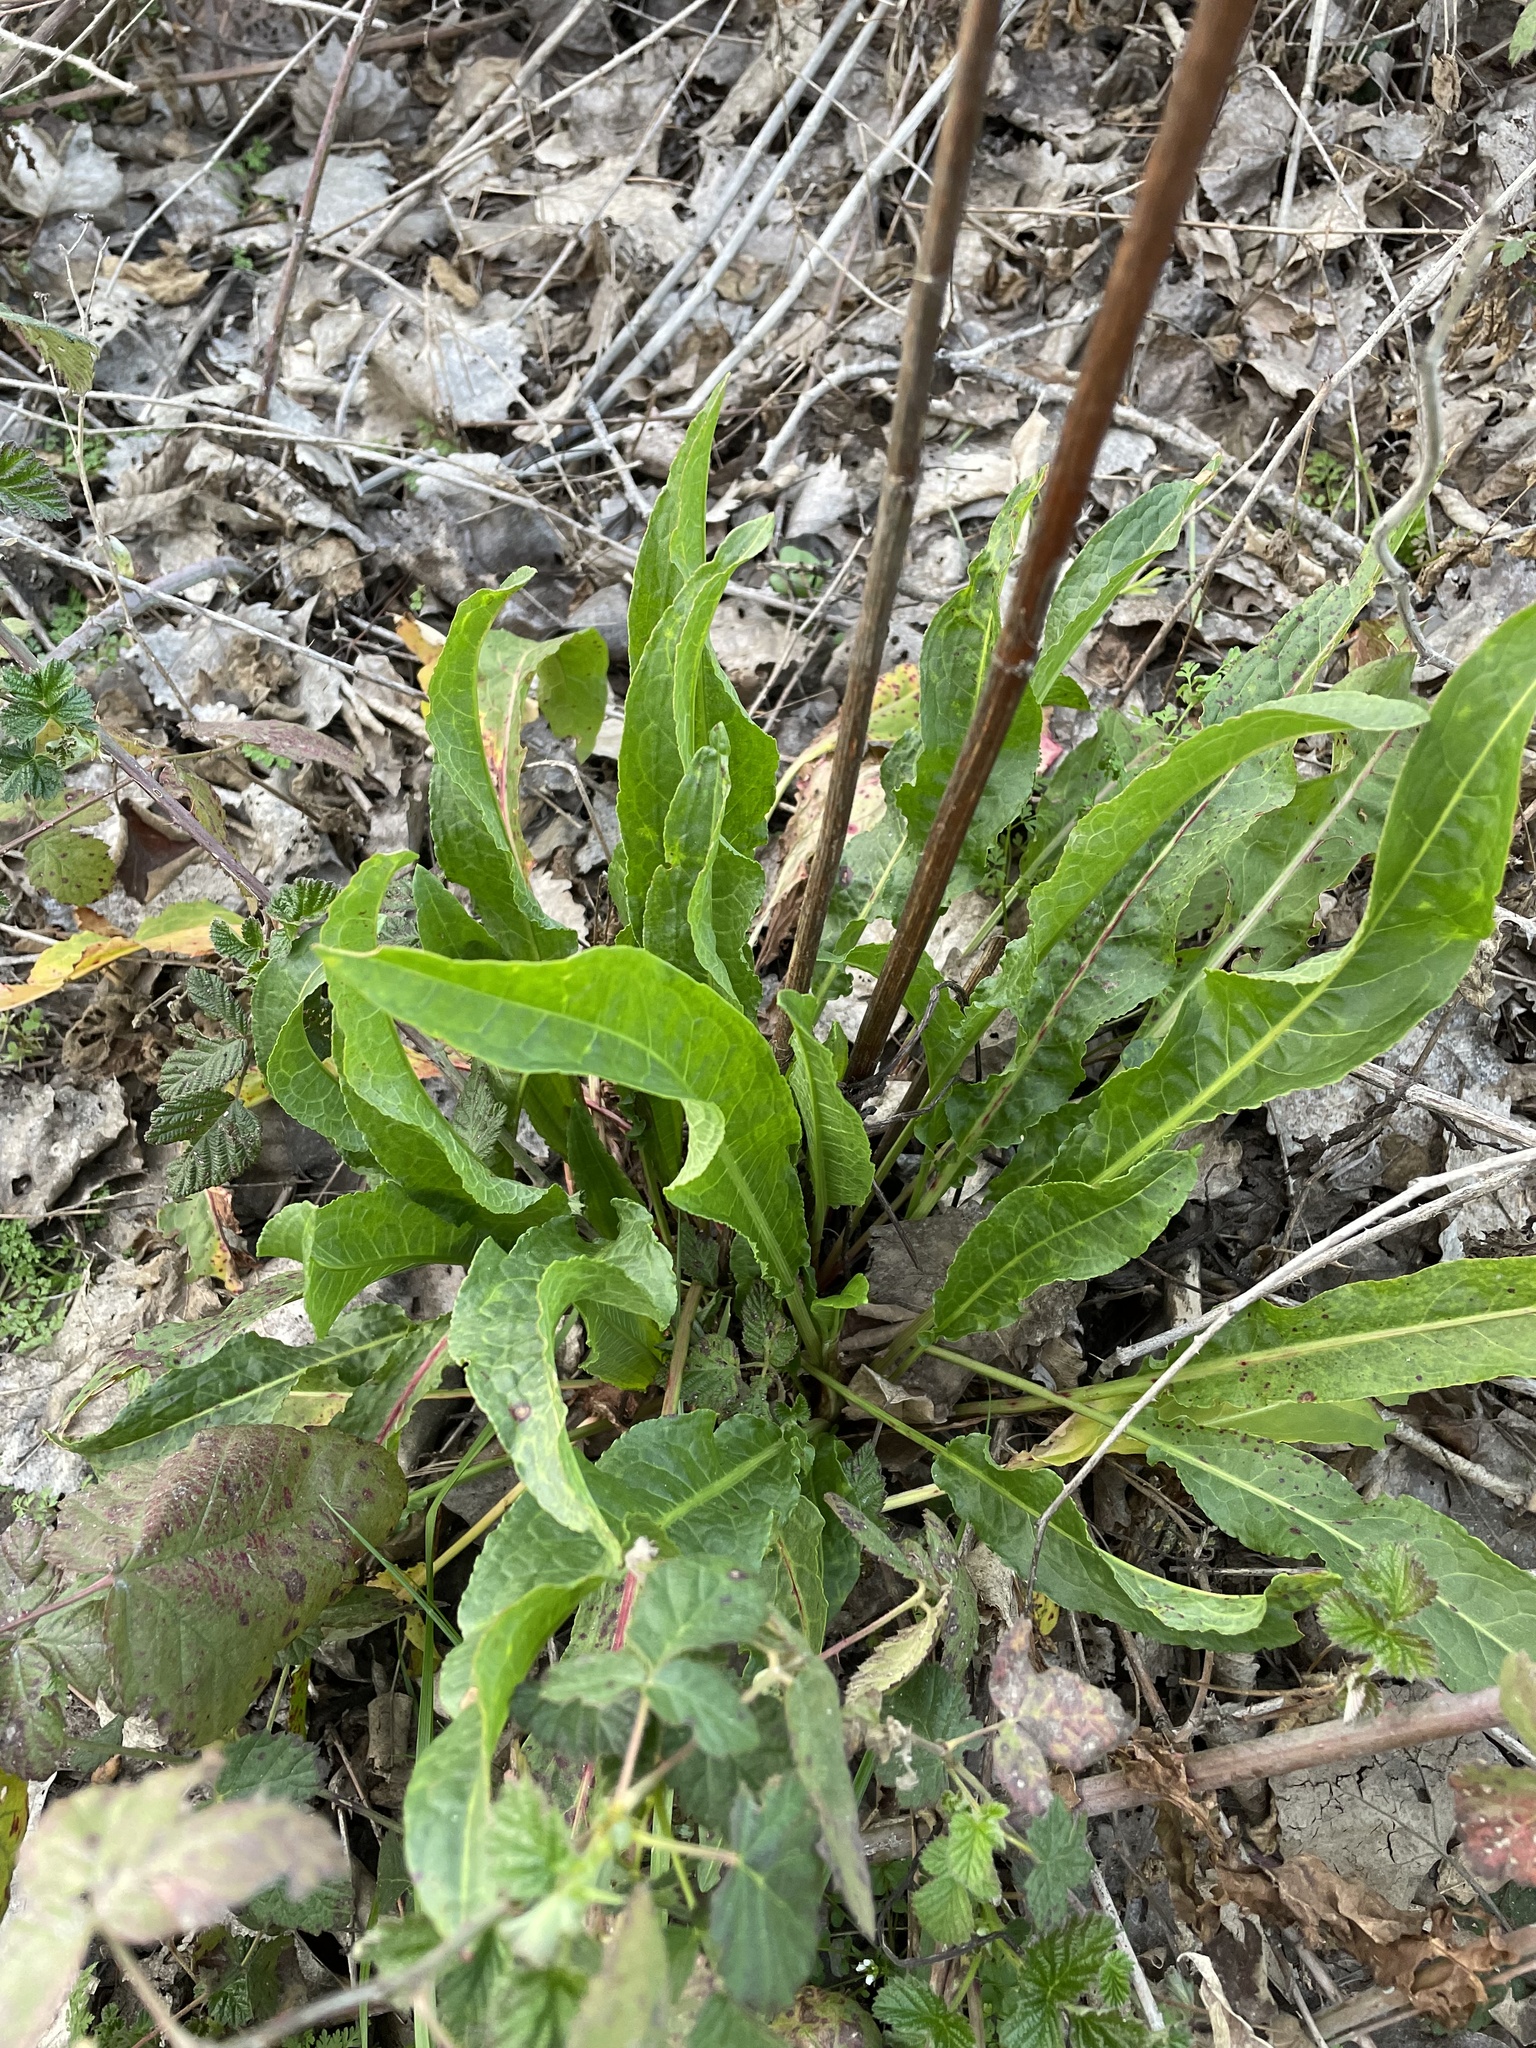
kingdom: Plantae
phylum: Tracheophyta
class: Magnoliopsida
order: Caryophyllales
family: Polygonaceae
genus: Rumex
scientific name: Rumex crispus
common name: Curled dock
